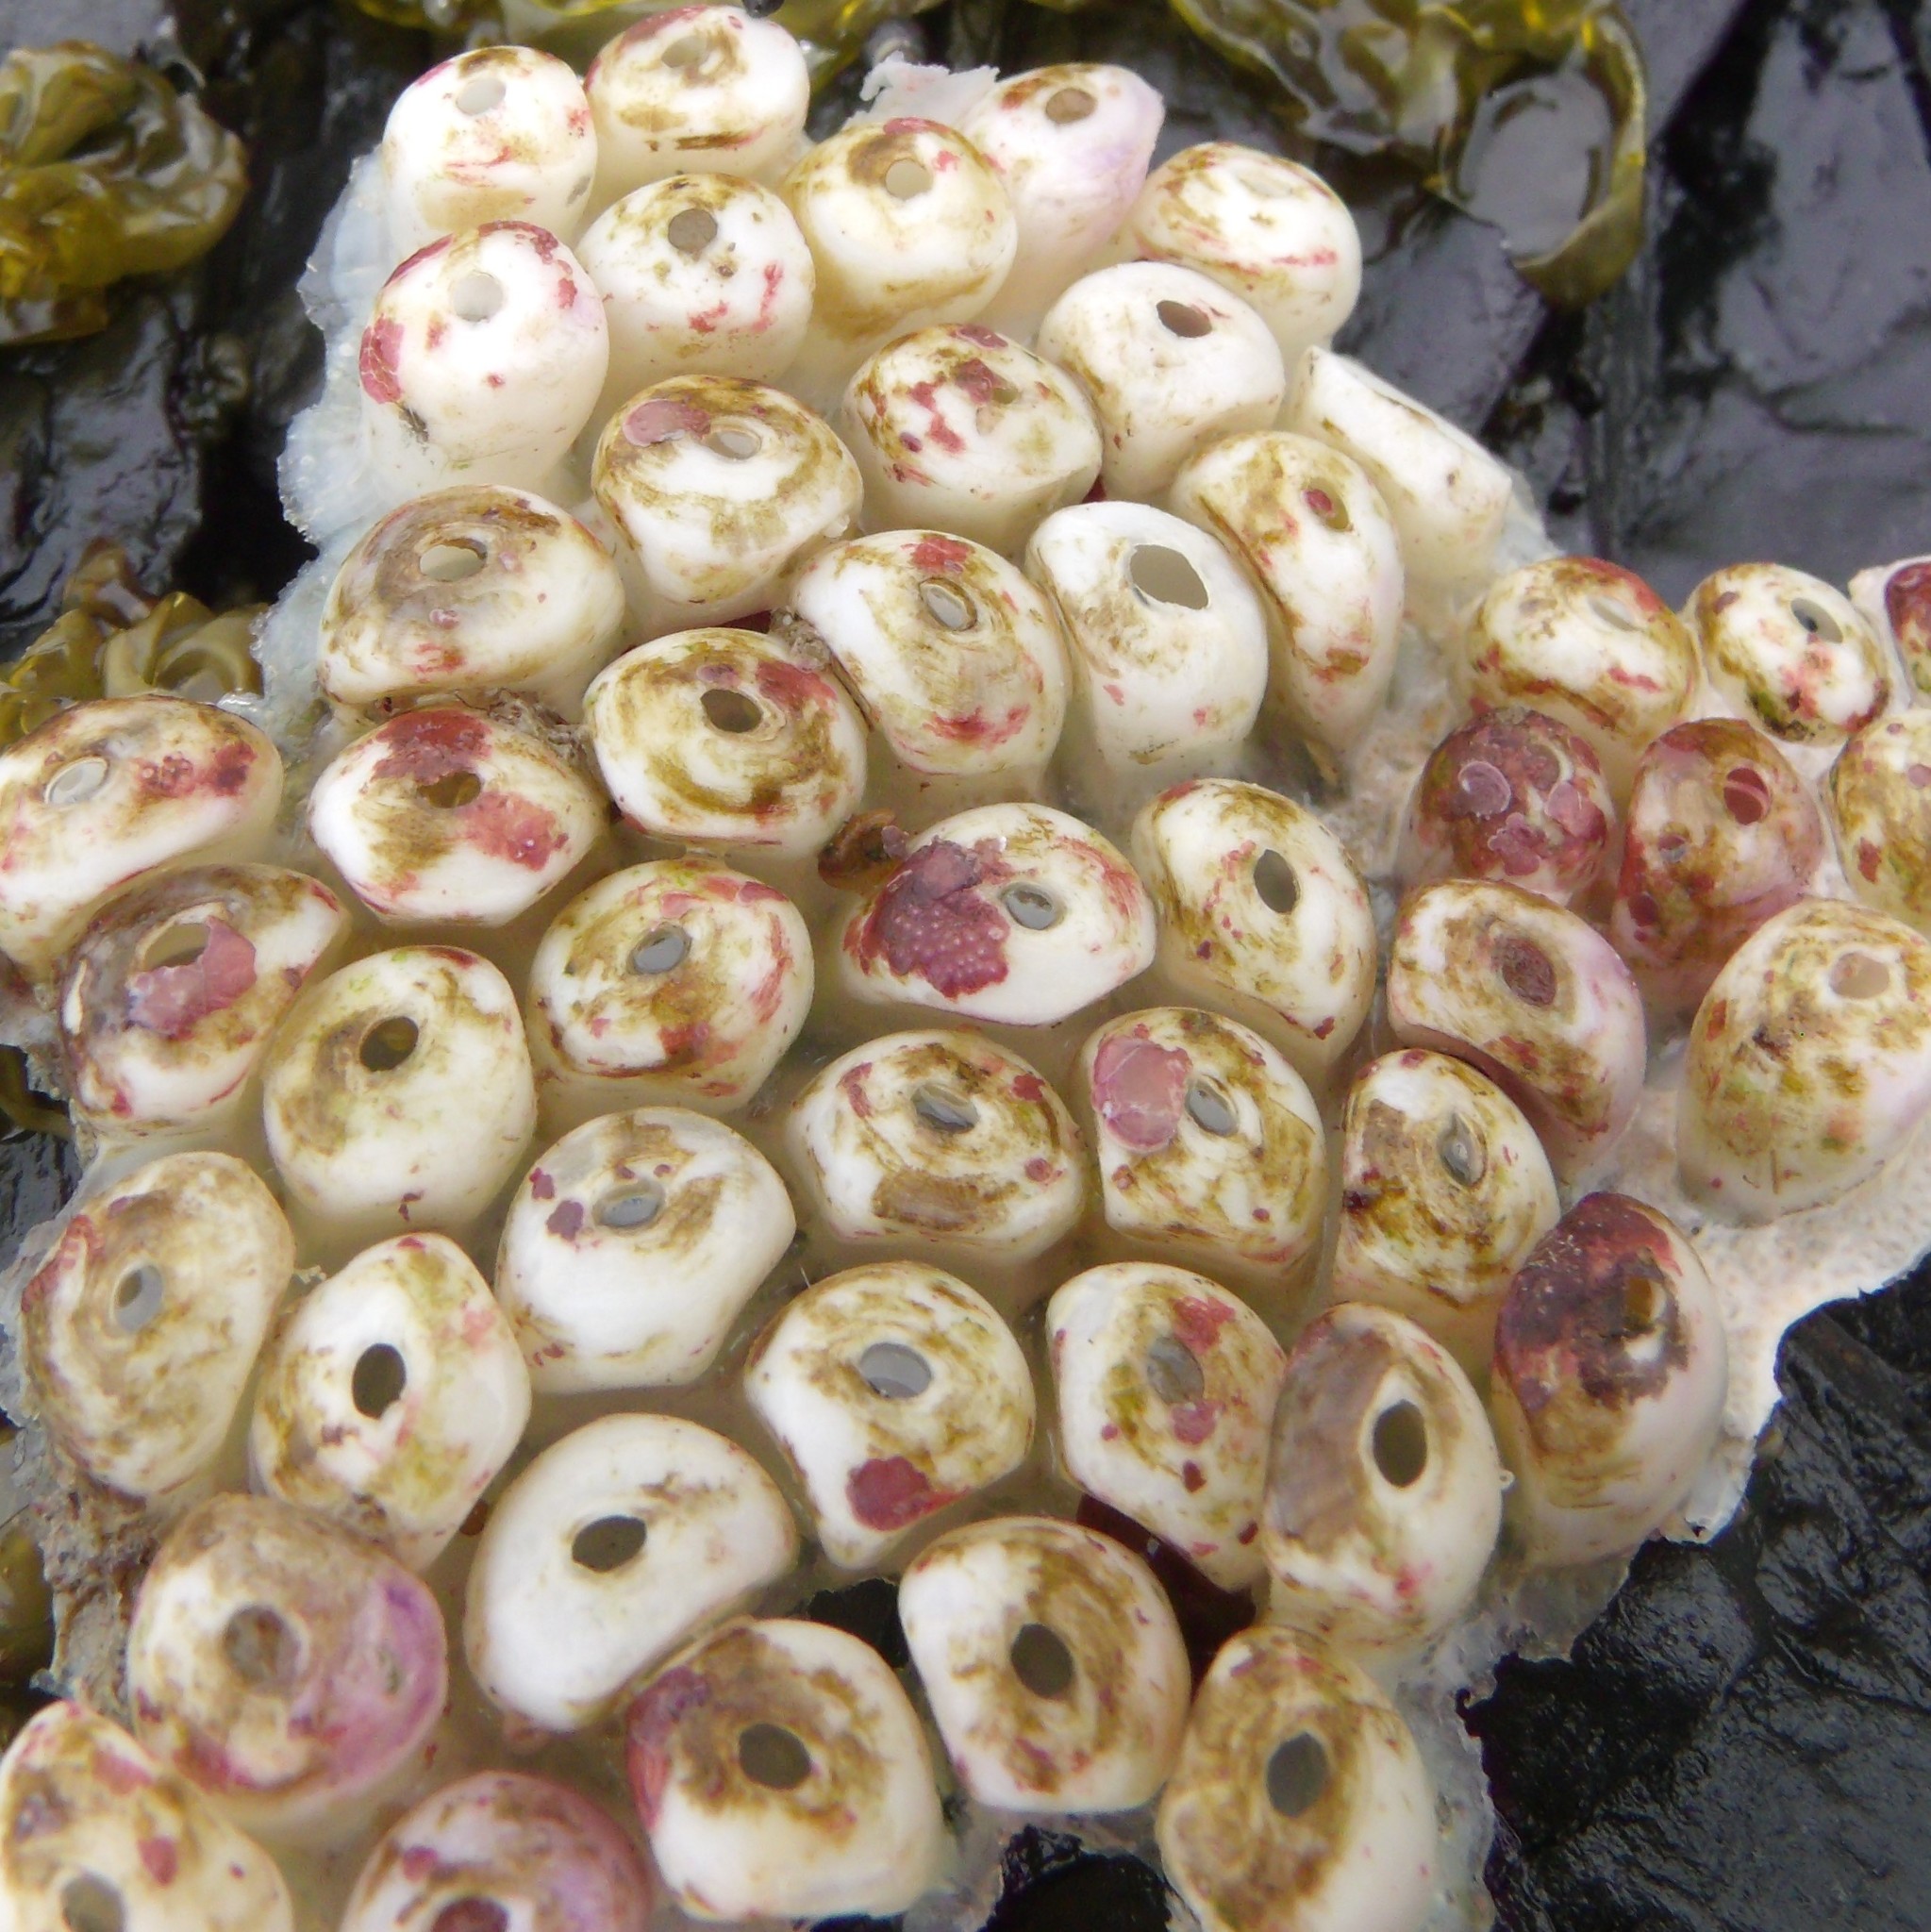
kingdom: Animalia
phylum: Mollusca
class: Gastropoda
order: Neogastropoda
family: Muricidae
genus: Haustrum
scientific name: Haustrum scobina
